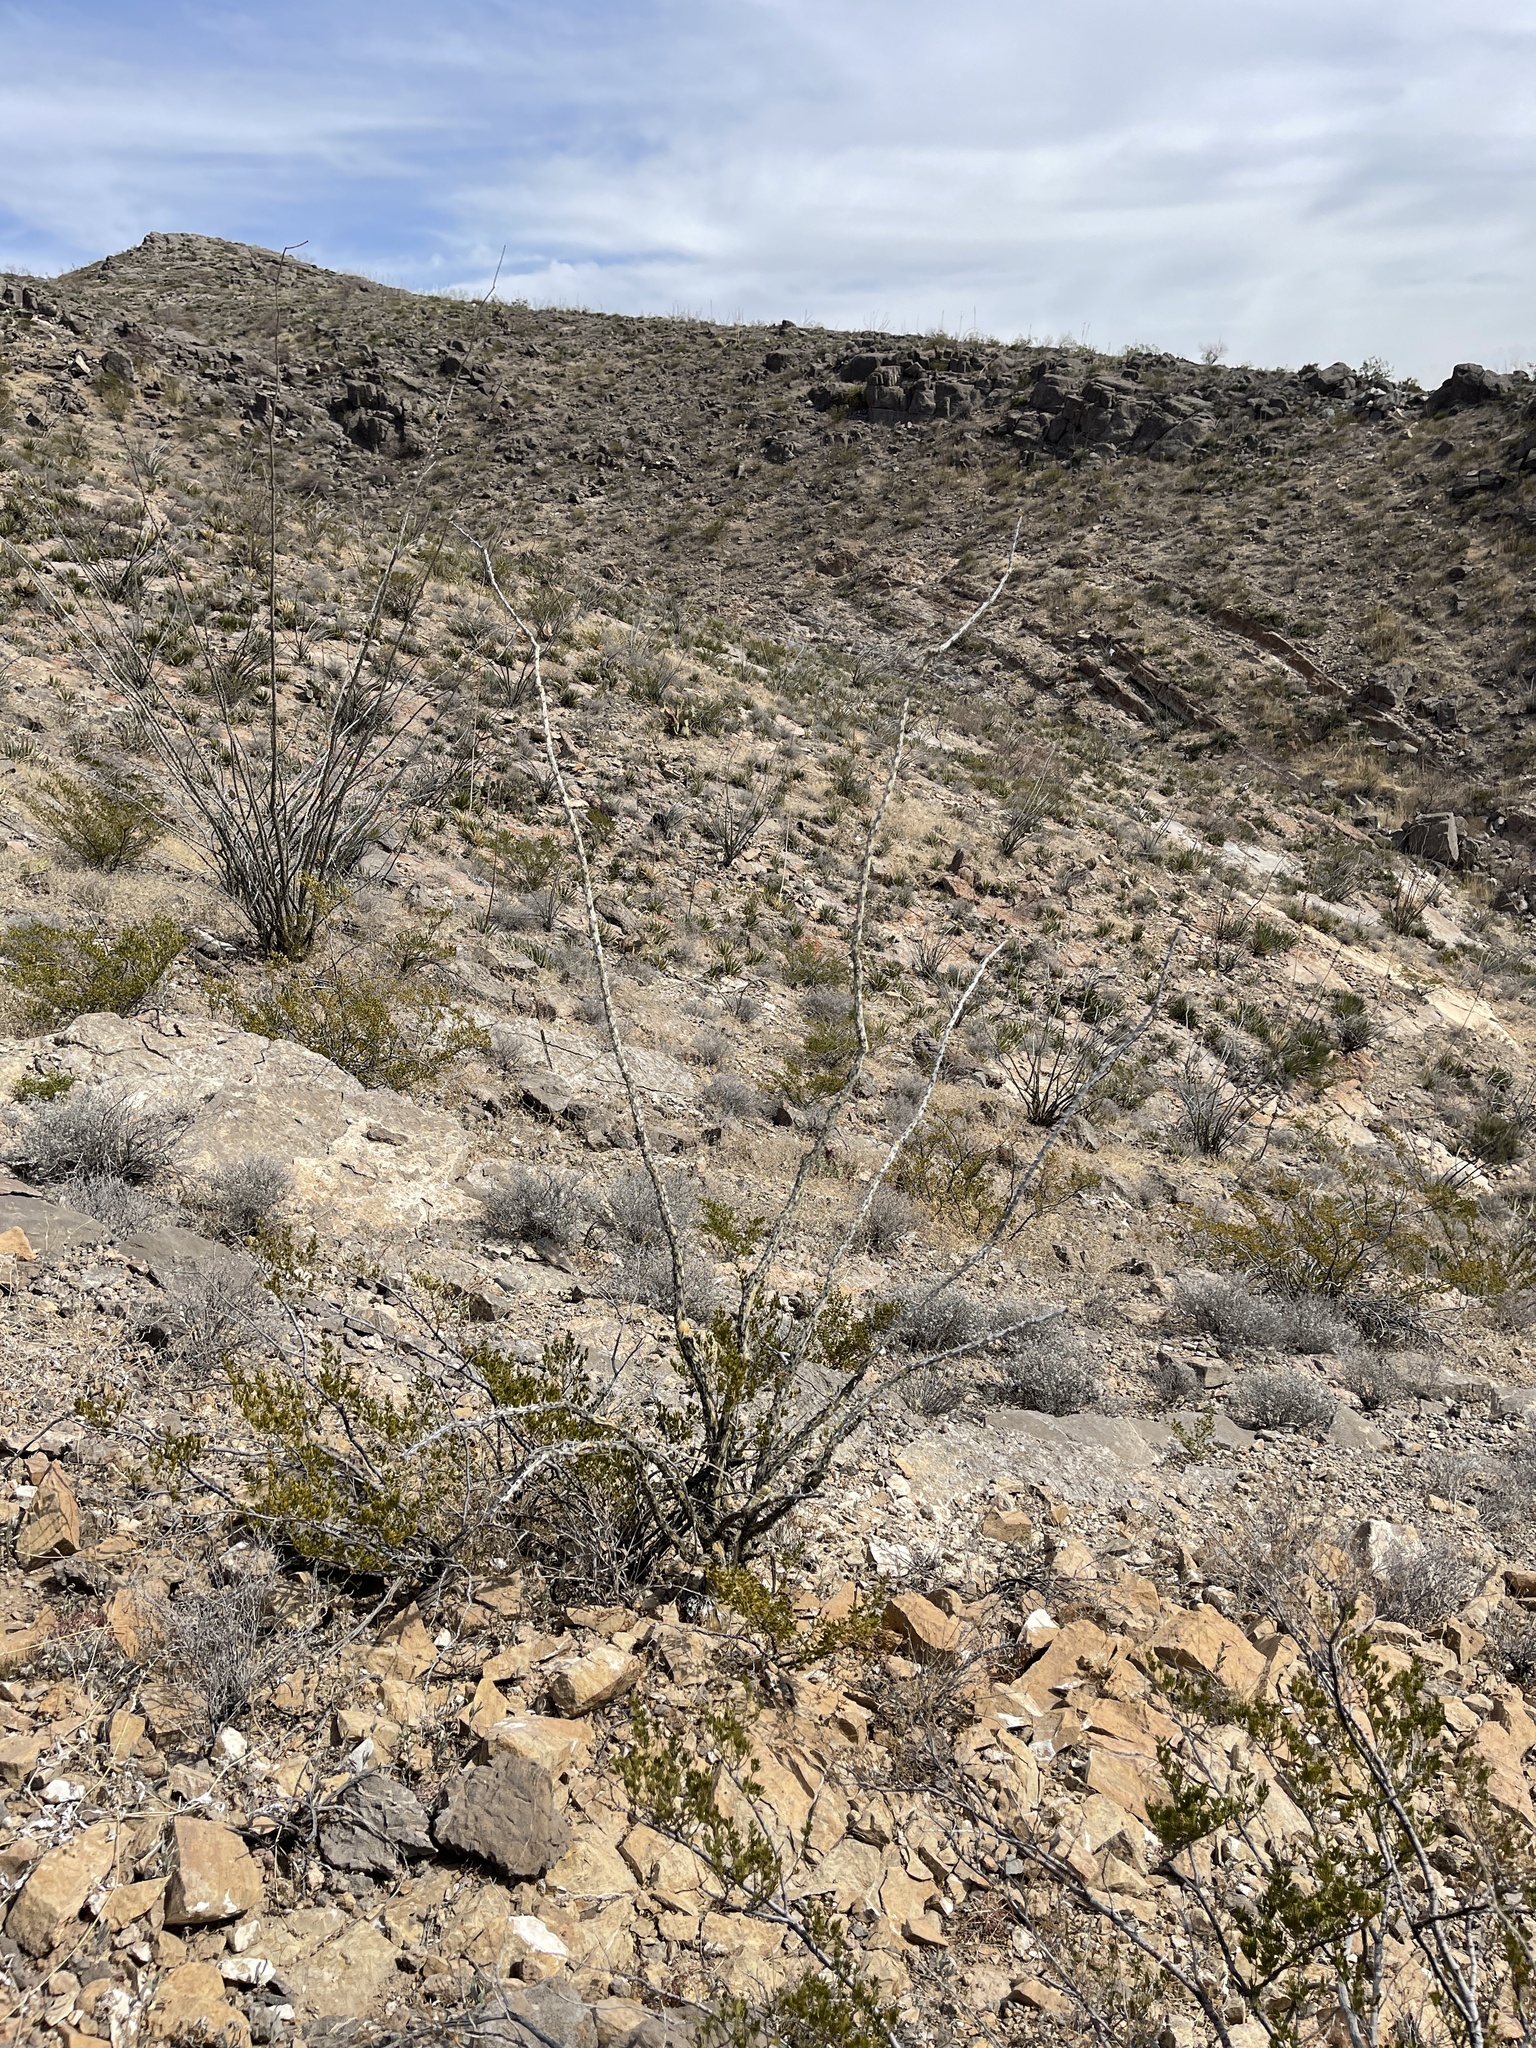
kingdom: Plantae
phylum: Tracheophyta
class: Magnoliopsida
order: Ericales
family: Fouquieriaceae
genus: Fouquieria
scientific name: Fouquieria splendens
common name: Vine-cactus
